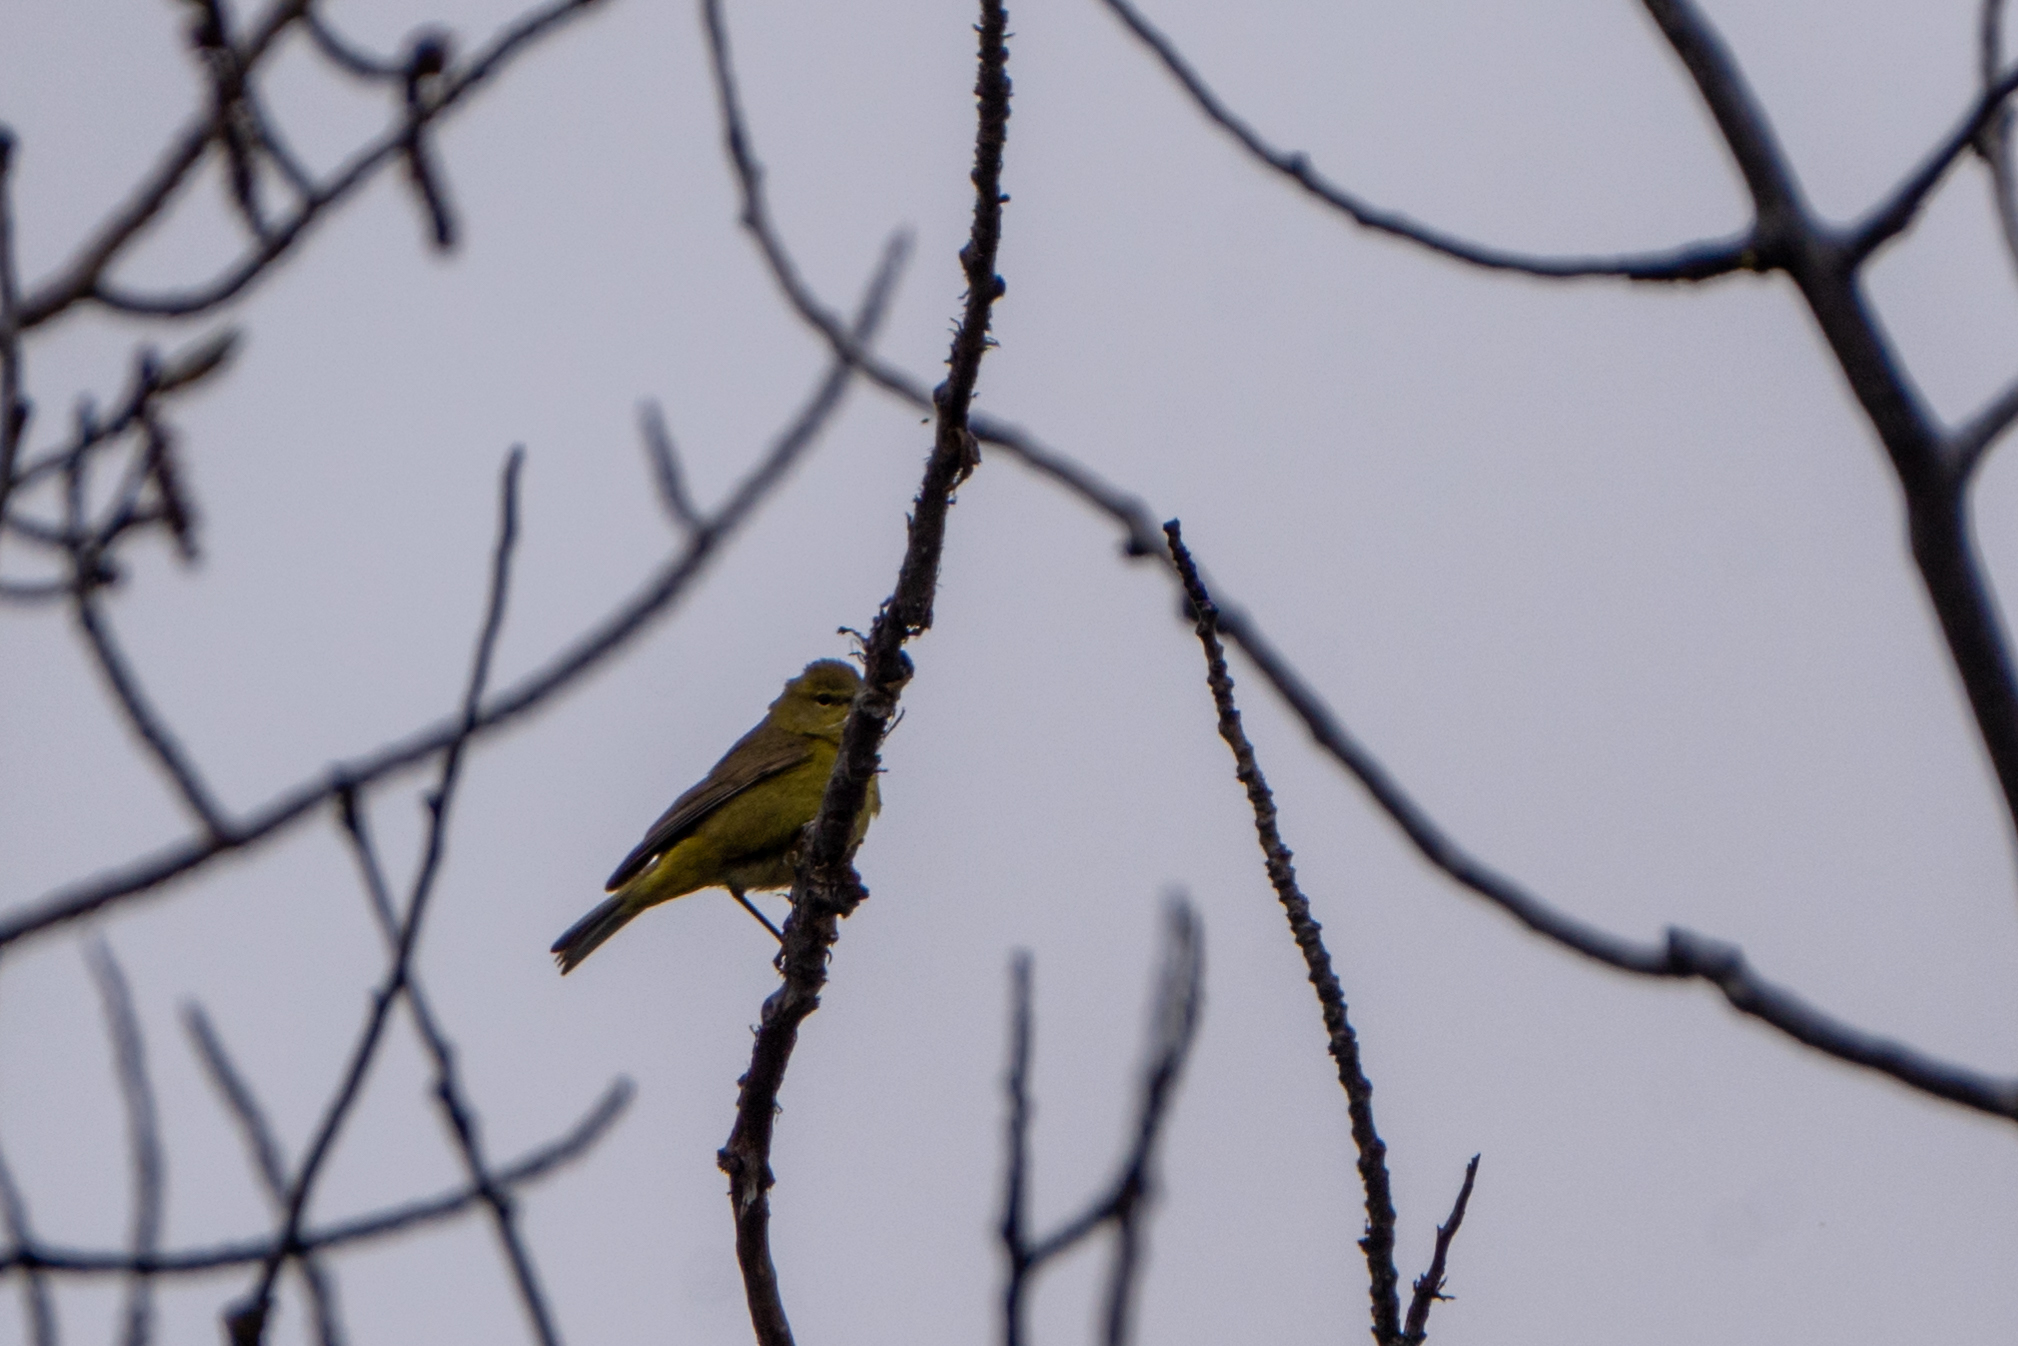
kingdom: Animalia
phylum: Chordata
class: Aves
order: Passeriformes
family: Parulidae
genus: Leiothlypis
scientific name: Leiothlypis celata
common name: Orange-crowned warbler
